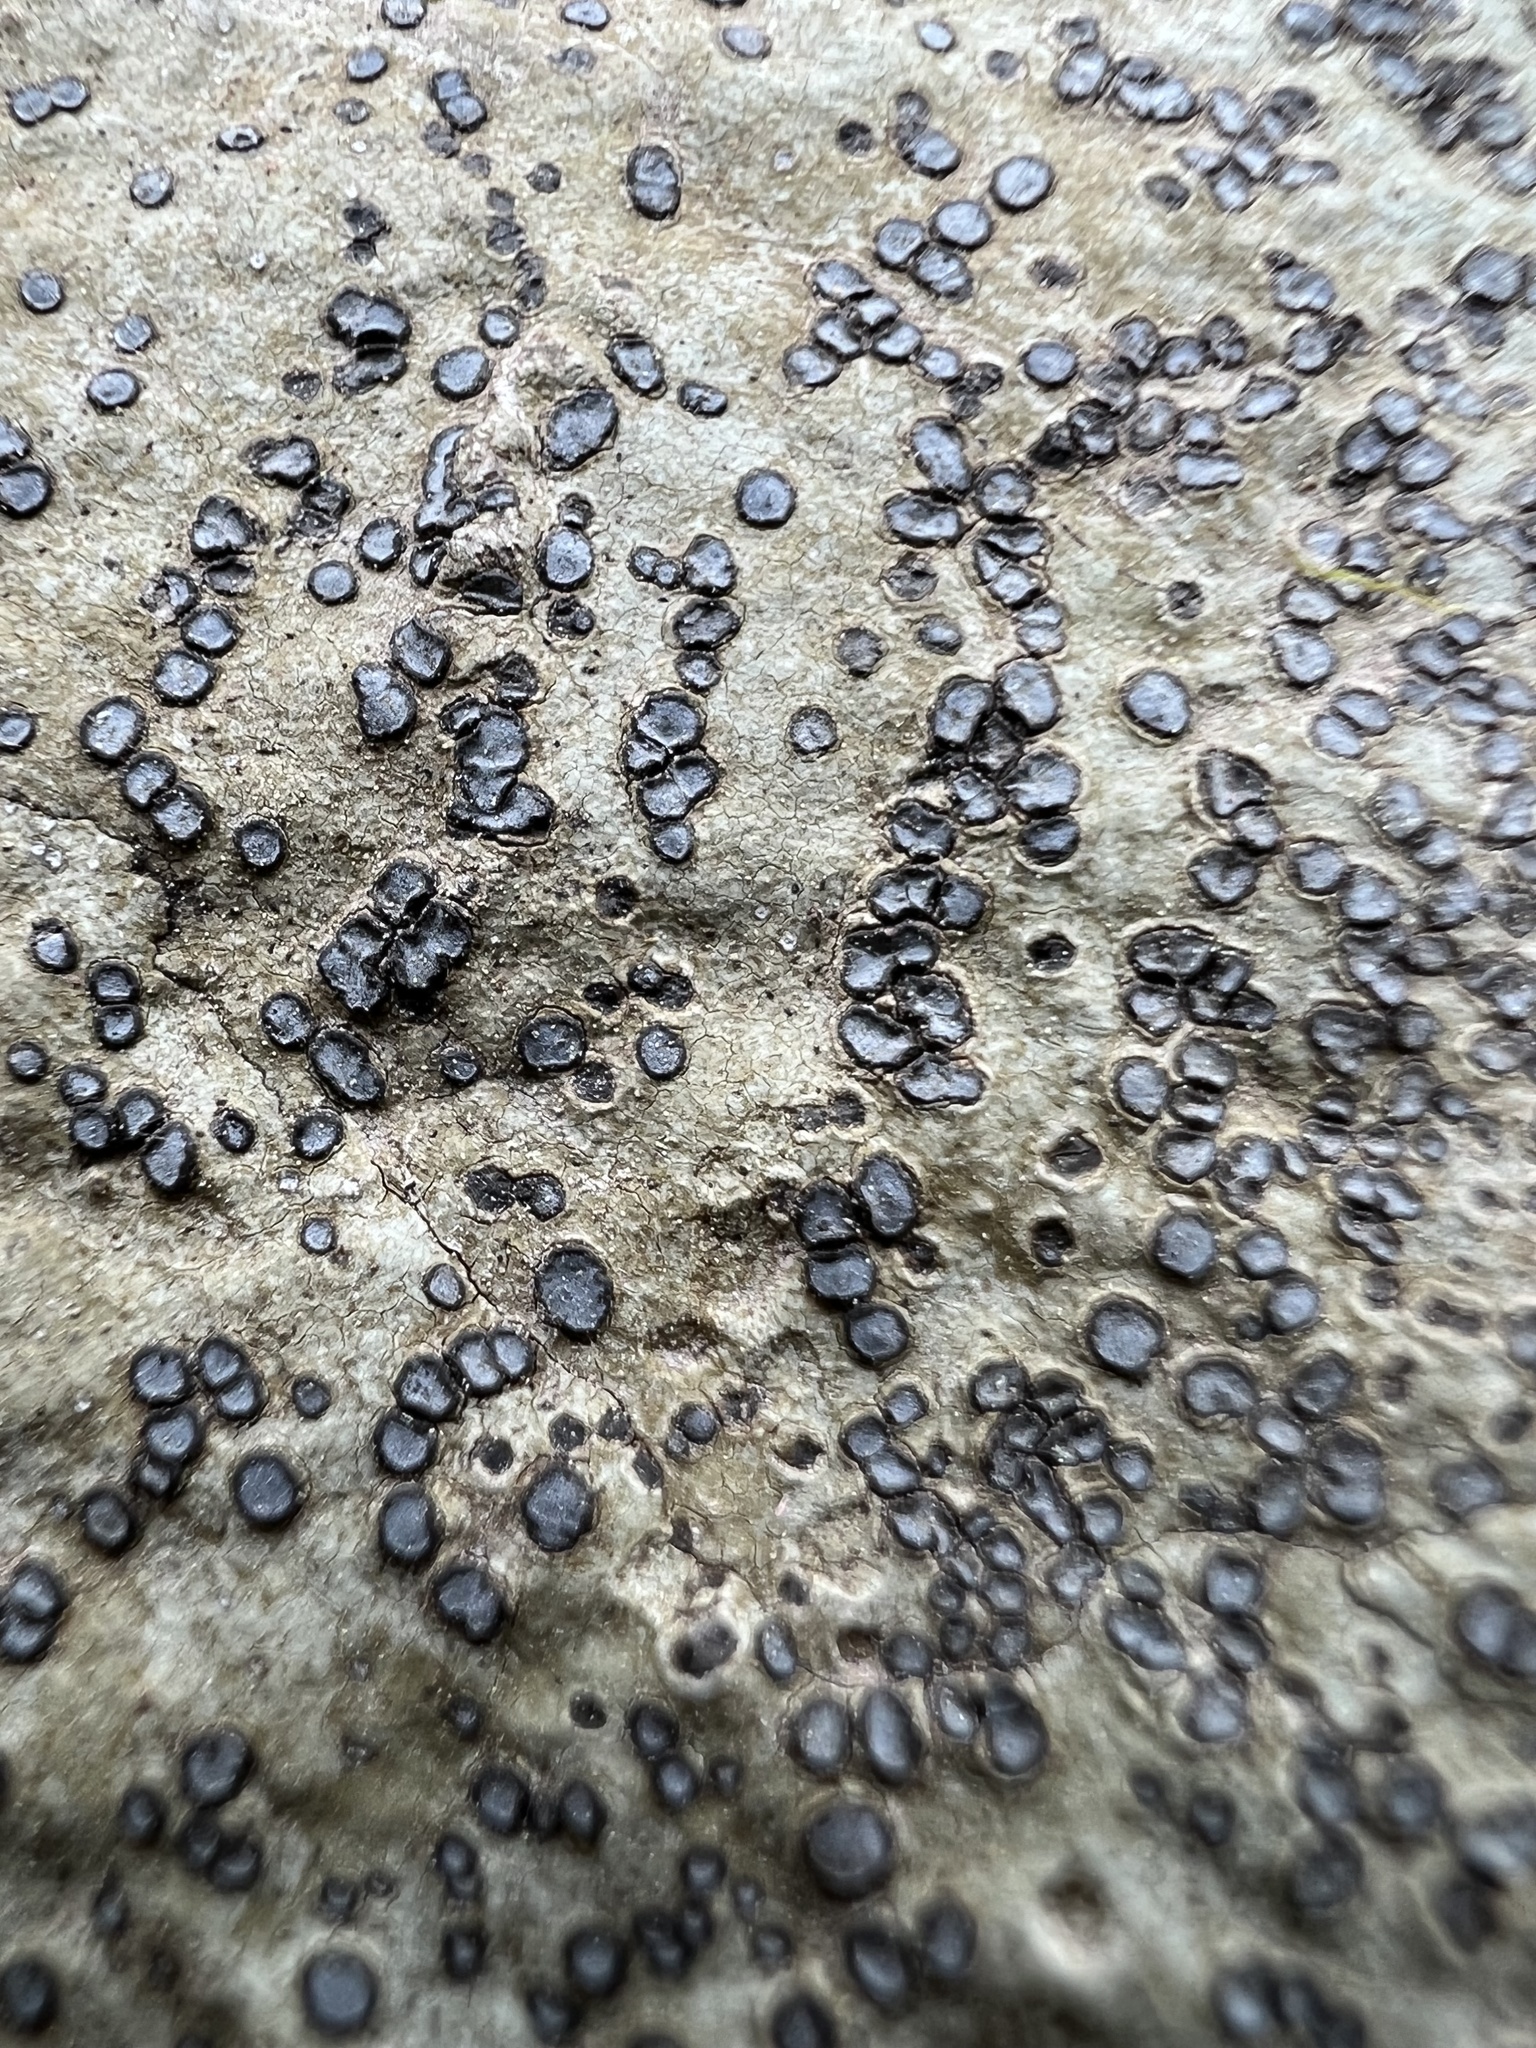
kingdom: Fungi
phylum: Ascomycota
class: Lecanoromycetes
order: Lecideales
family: Lecideaceae
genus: Porpidia
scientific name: Porpidia albocaerulescens
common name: Smokey-eyed boulder lichen
